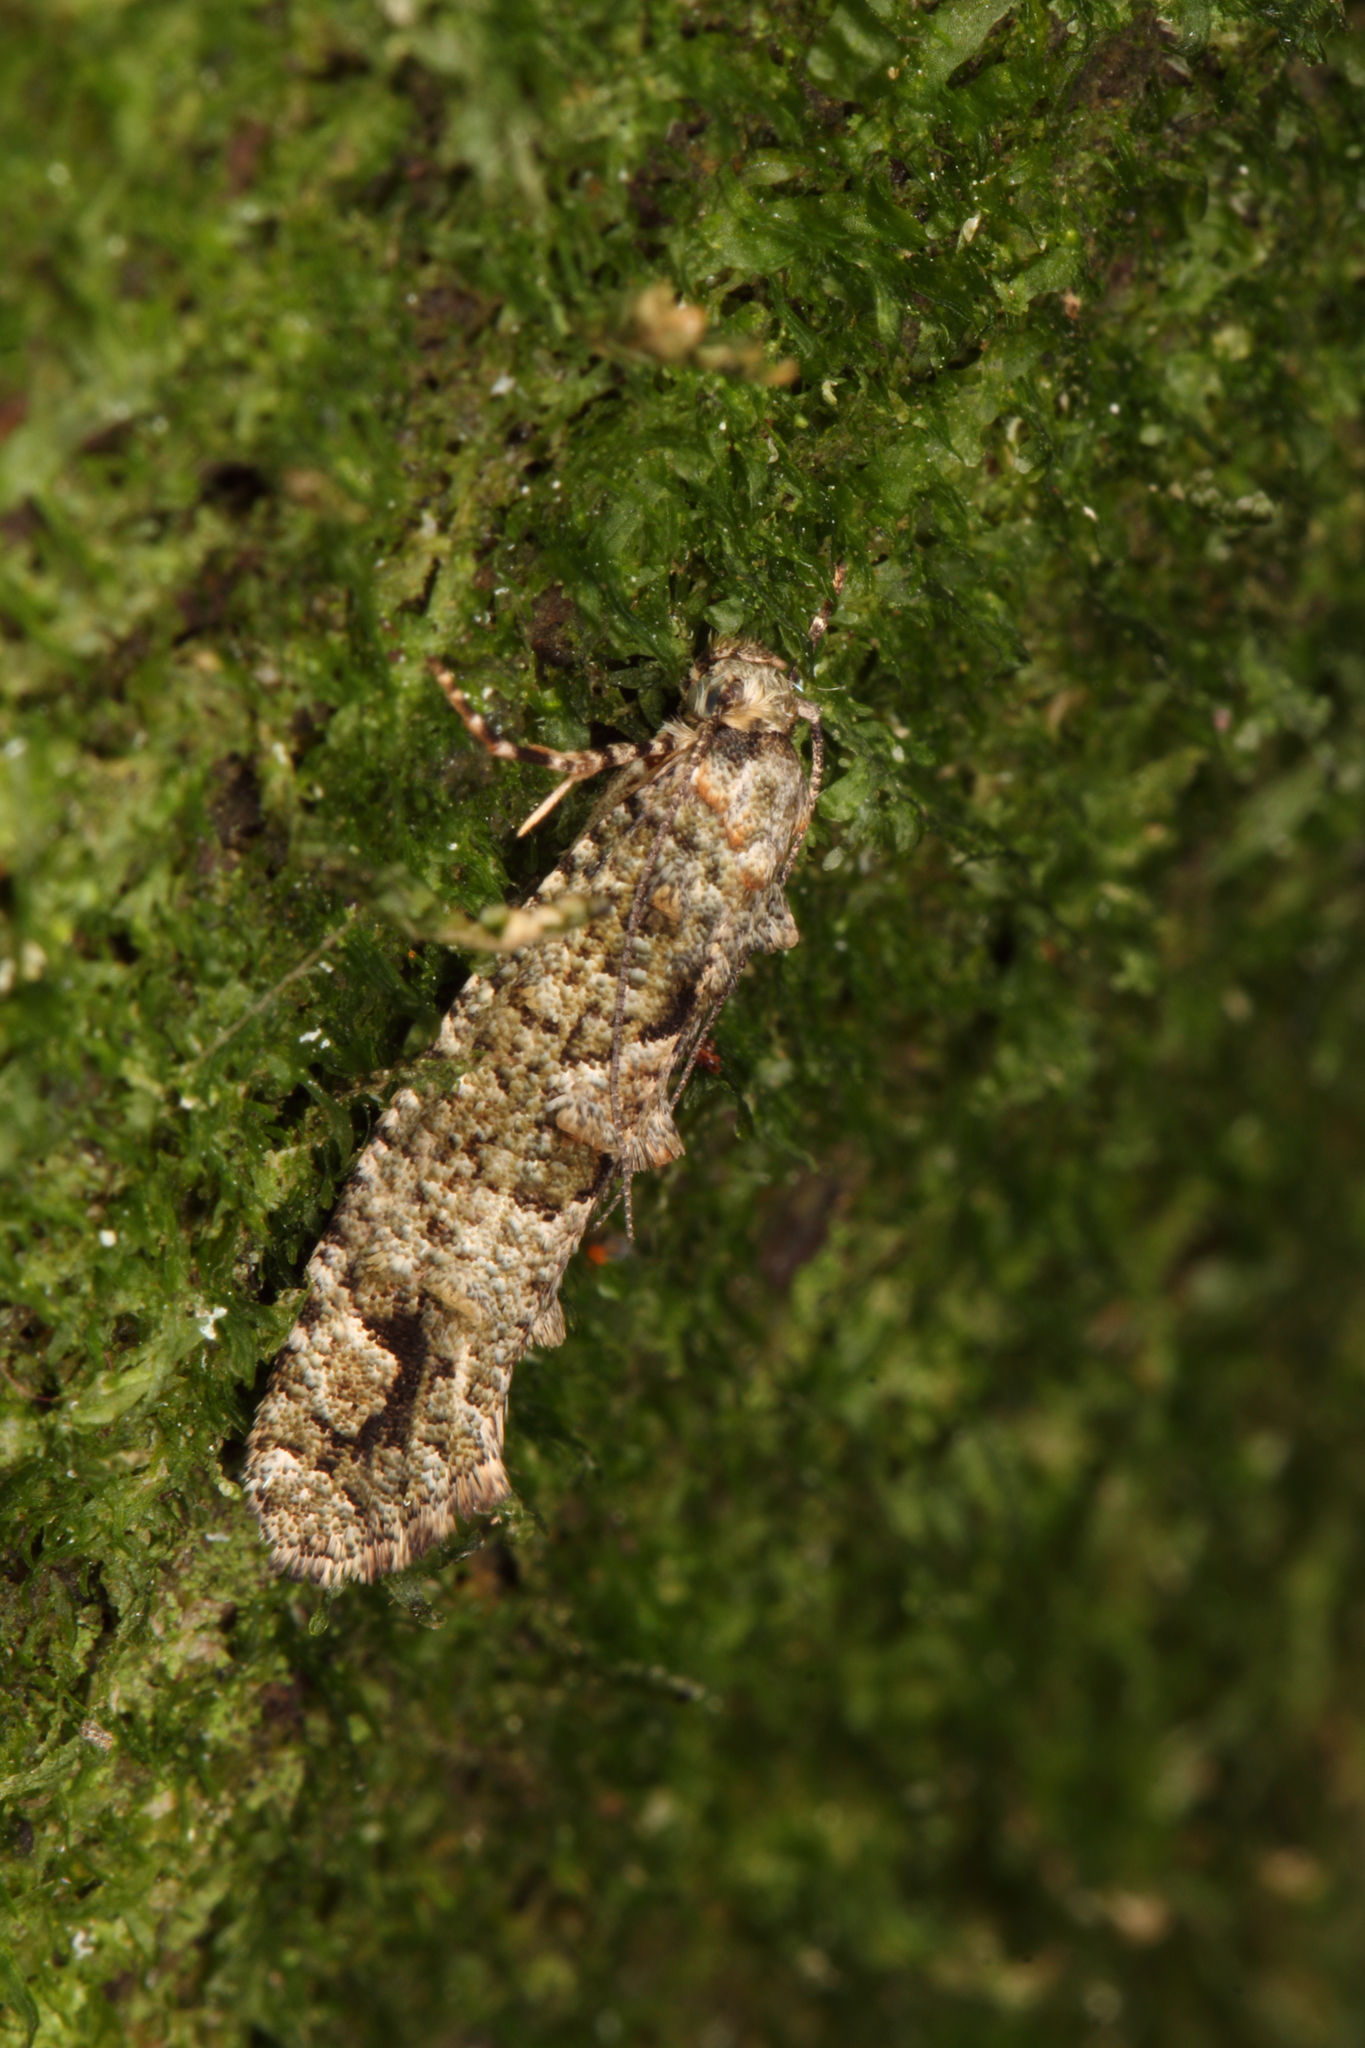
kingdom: Animalia
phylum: Arthropoda
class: Insecta
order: Lepidoptera
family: Tineidae
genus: Lysiphragma
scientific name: Lysiphragma howesii
